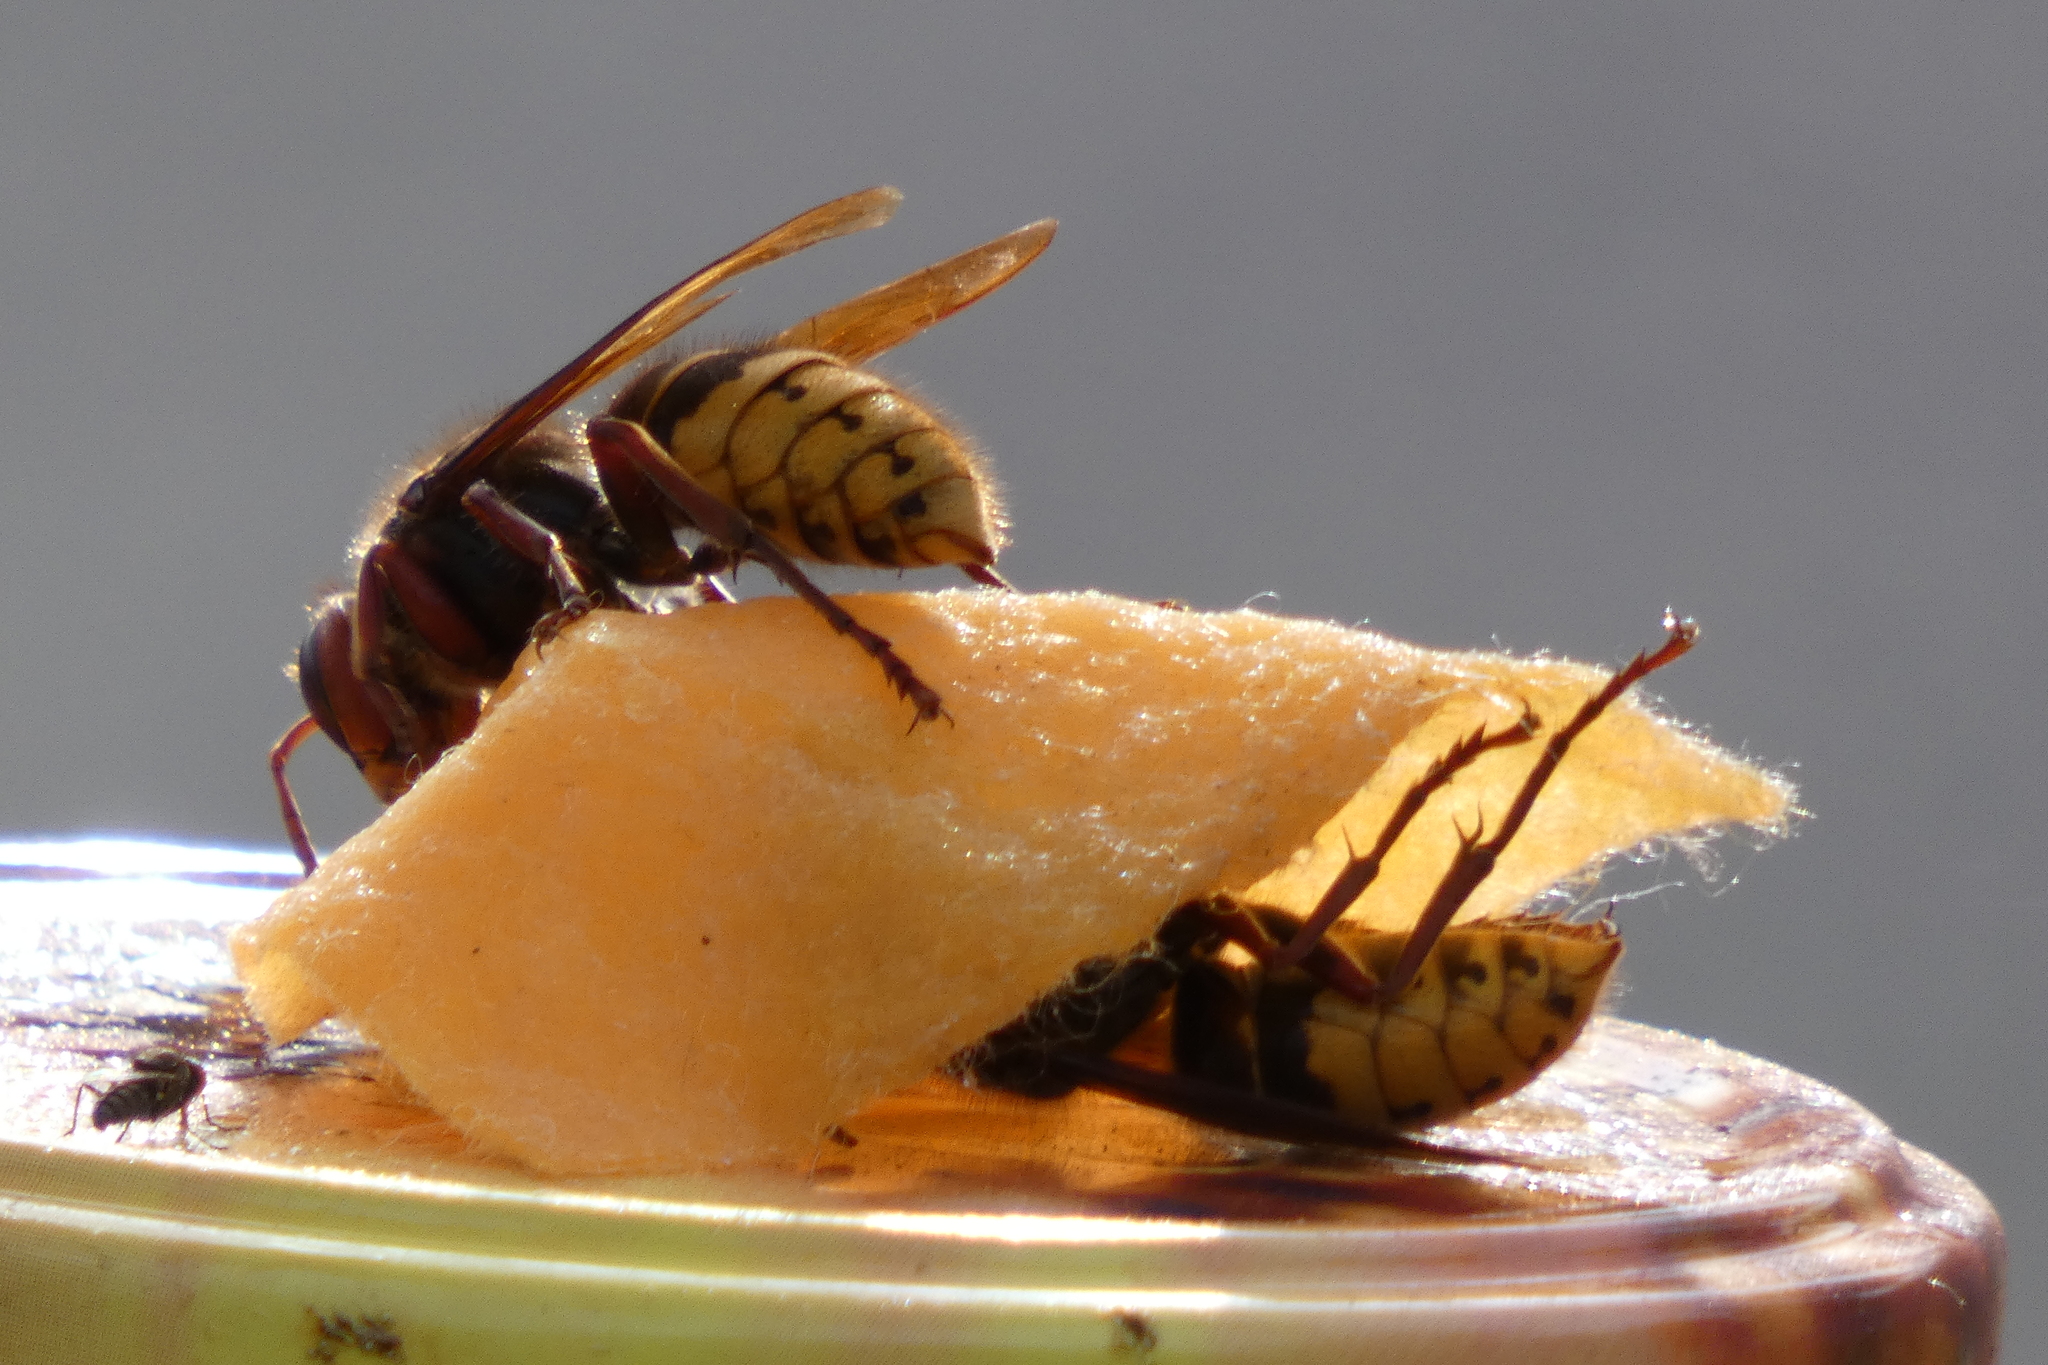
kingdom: Animalia
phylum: Arthropoda
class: Insecta
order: Hymenoptera
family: Vespidae
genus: Vespa
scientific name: Vespa crabro
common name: Hornet
